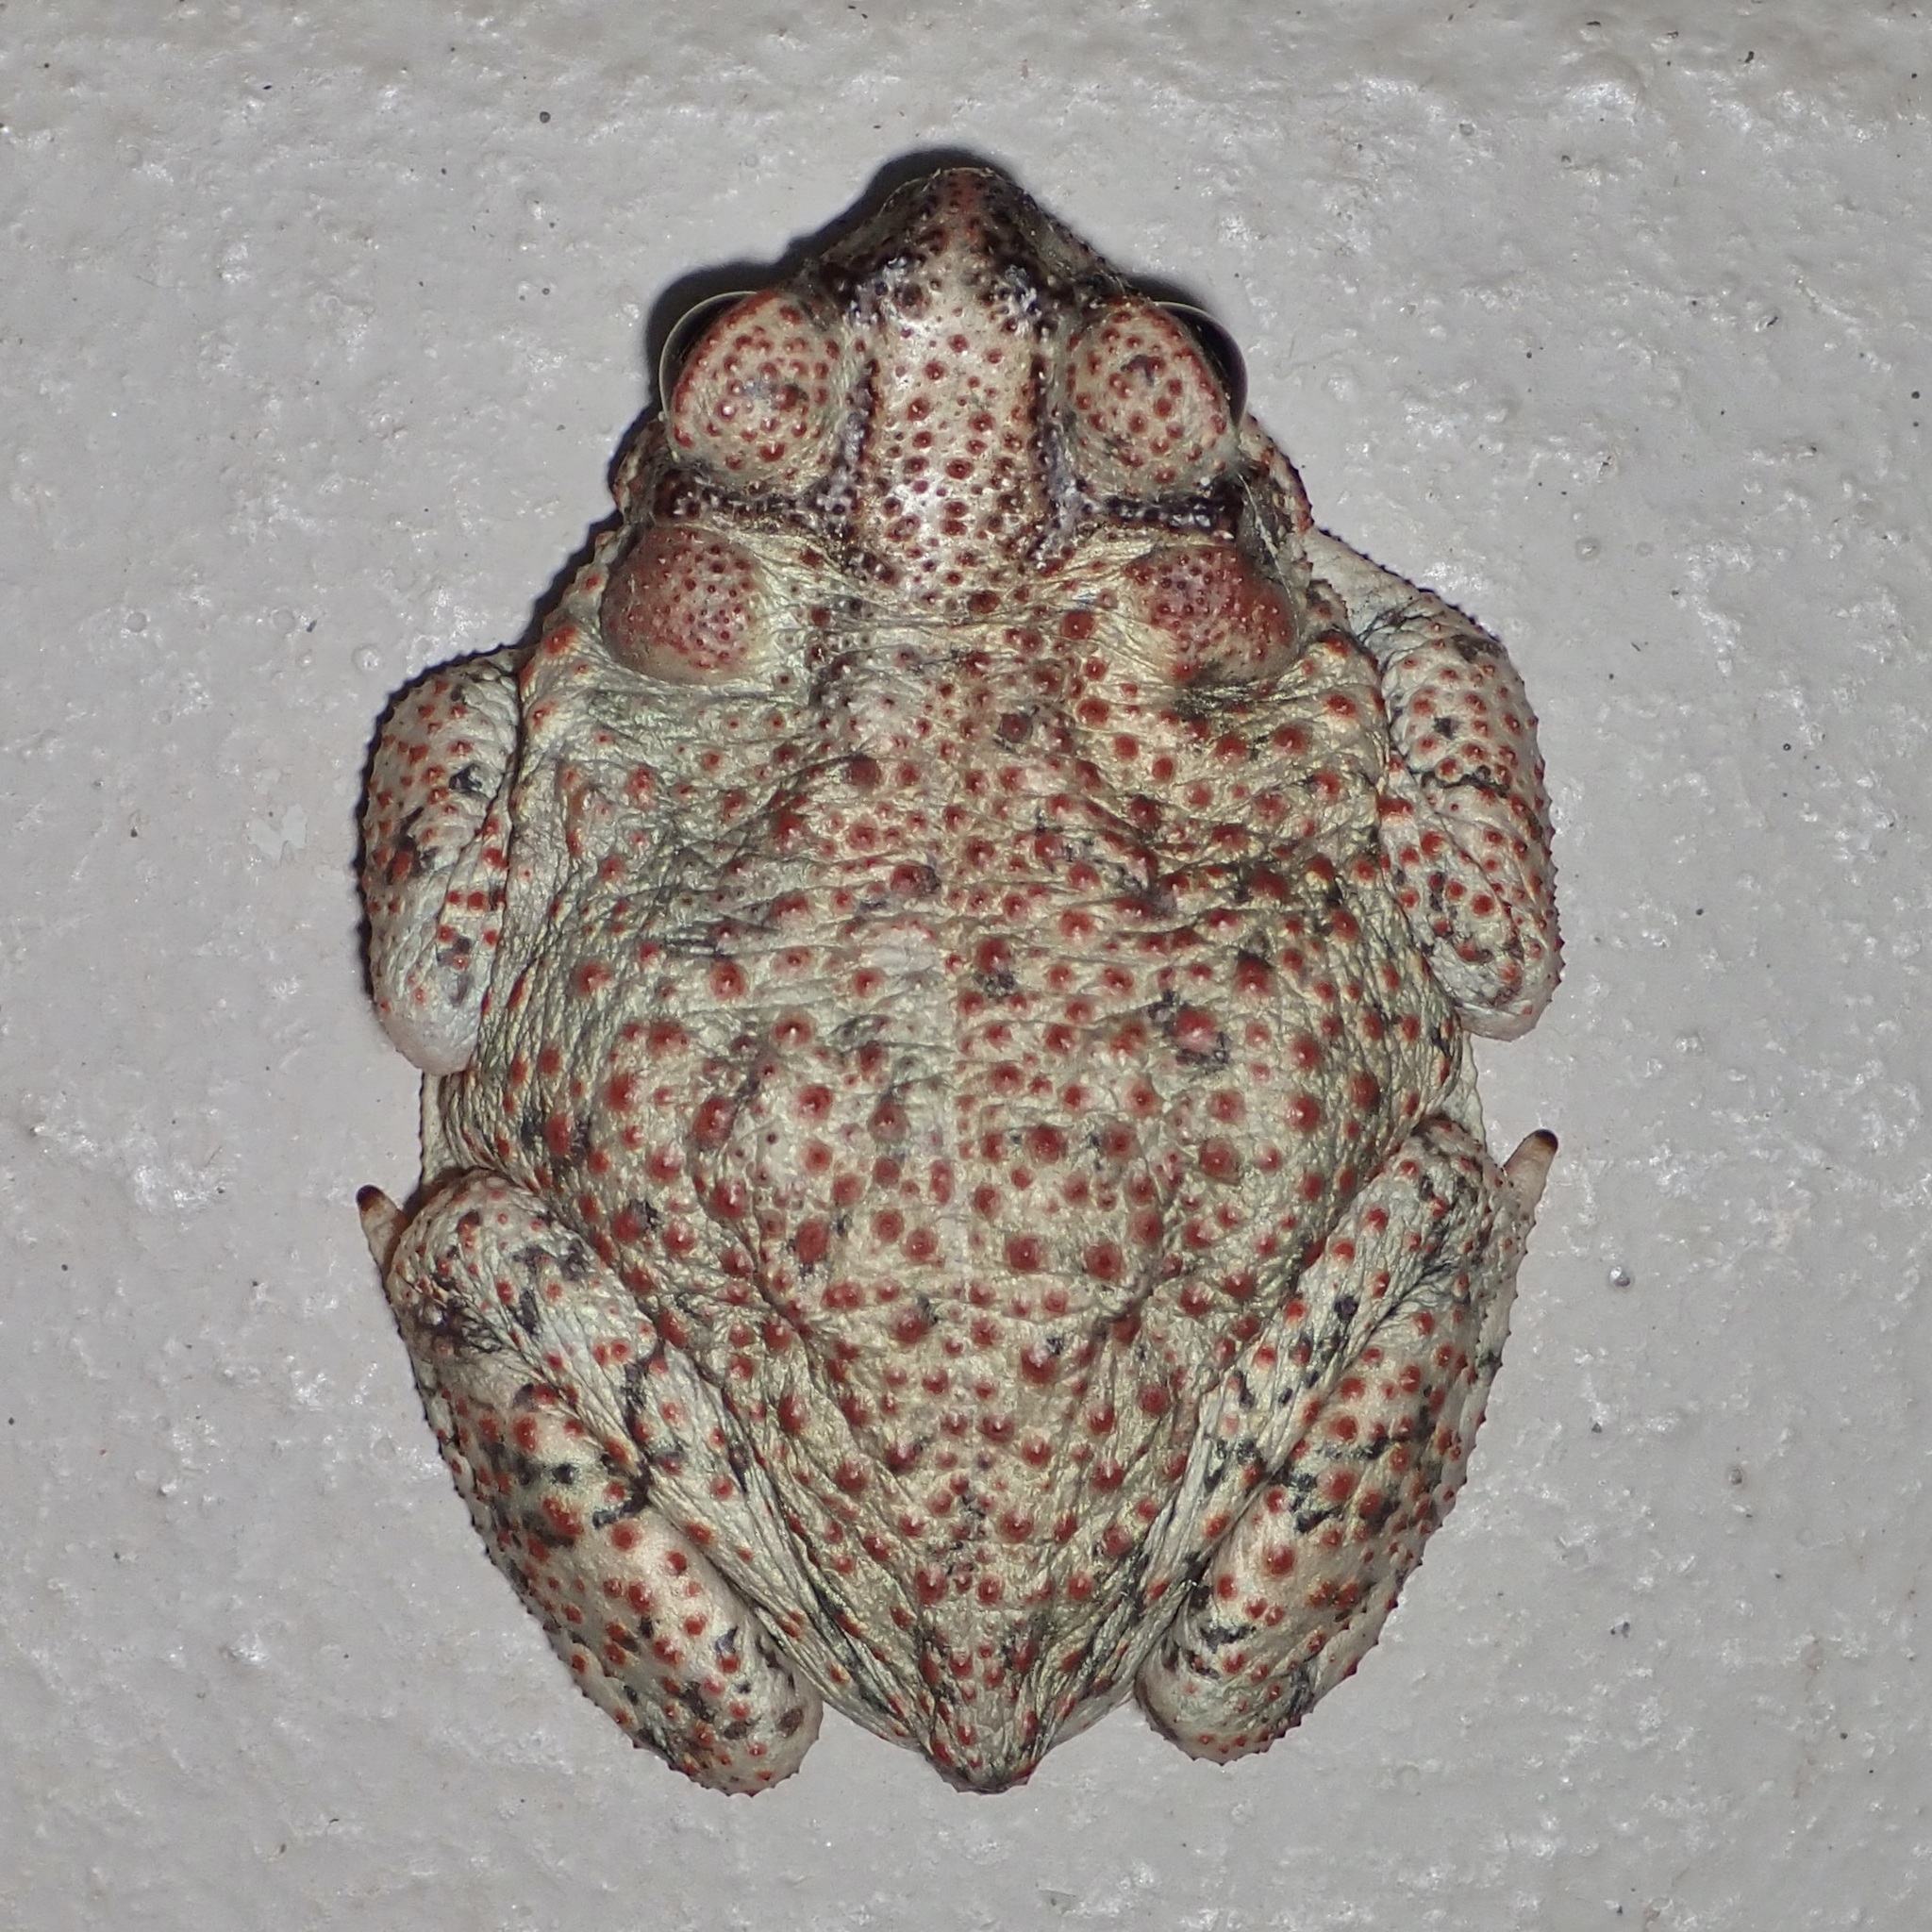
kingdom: Animalia
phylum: Chordata
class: Amphibia
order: Anura
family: Bufonidae
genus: Anaxyrus
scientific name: Anaxyrus punctatus
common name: Red-spotted toad
